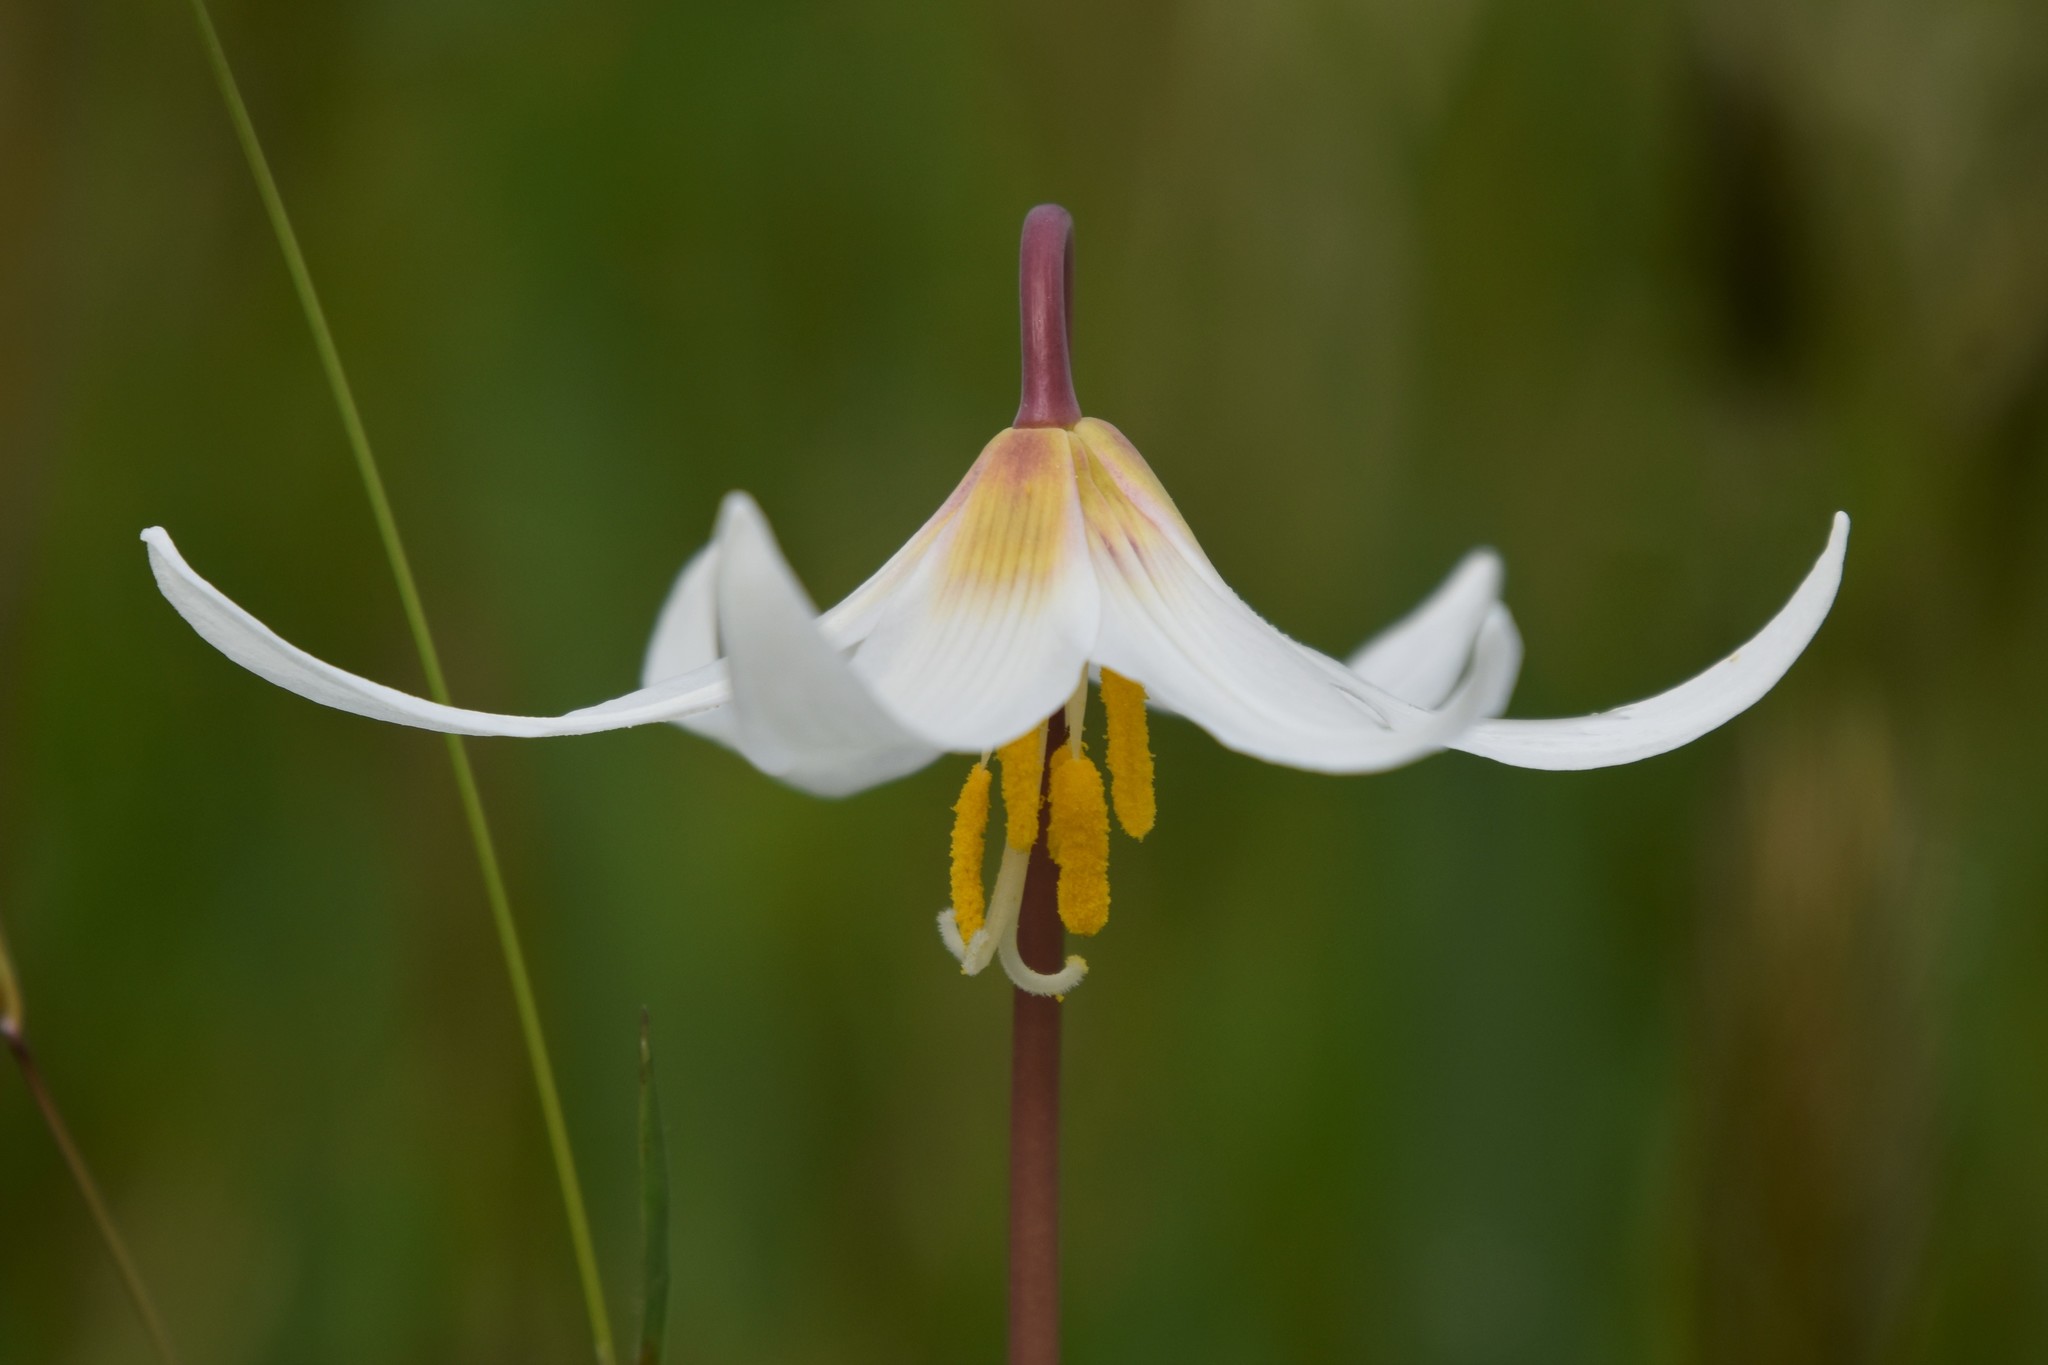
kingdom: Plantae
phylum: Tracheophyta
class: Liliopsida
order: Liliales
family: Liliaceae
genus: Erythronium
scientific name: Erythronium oregonum
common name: Giant adder's-tongue
